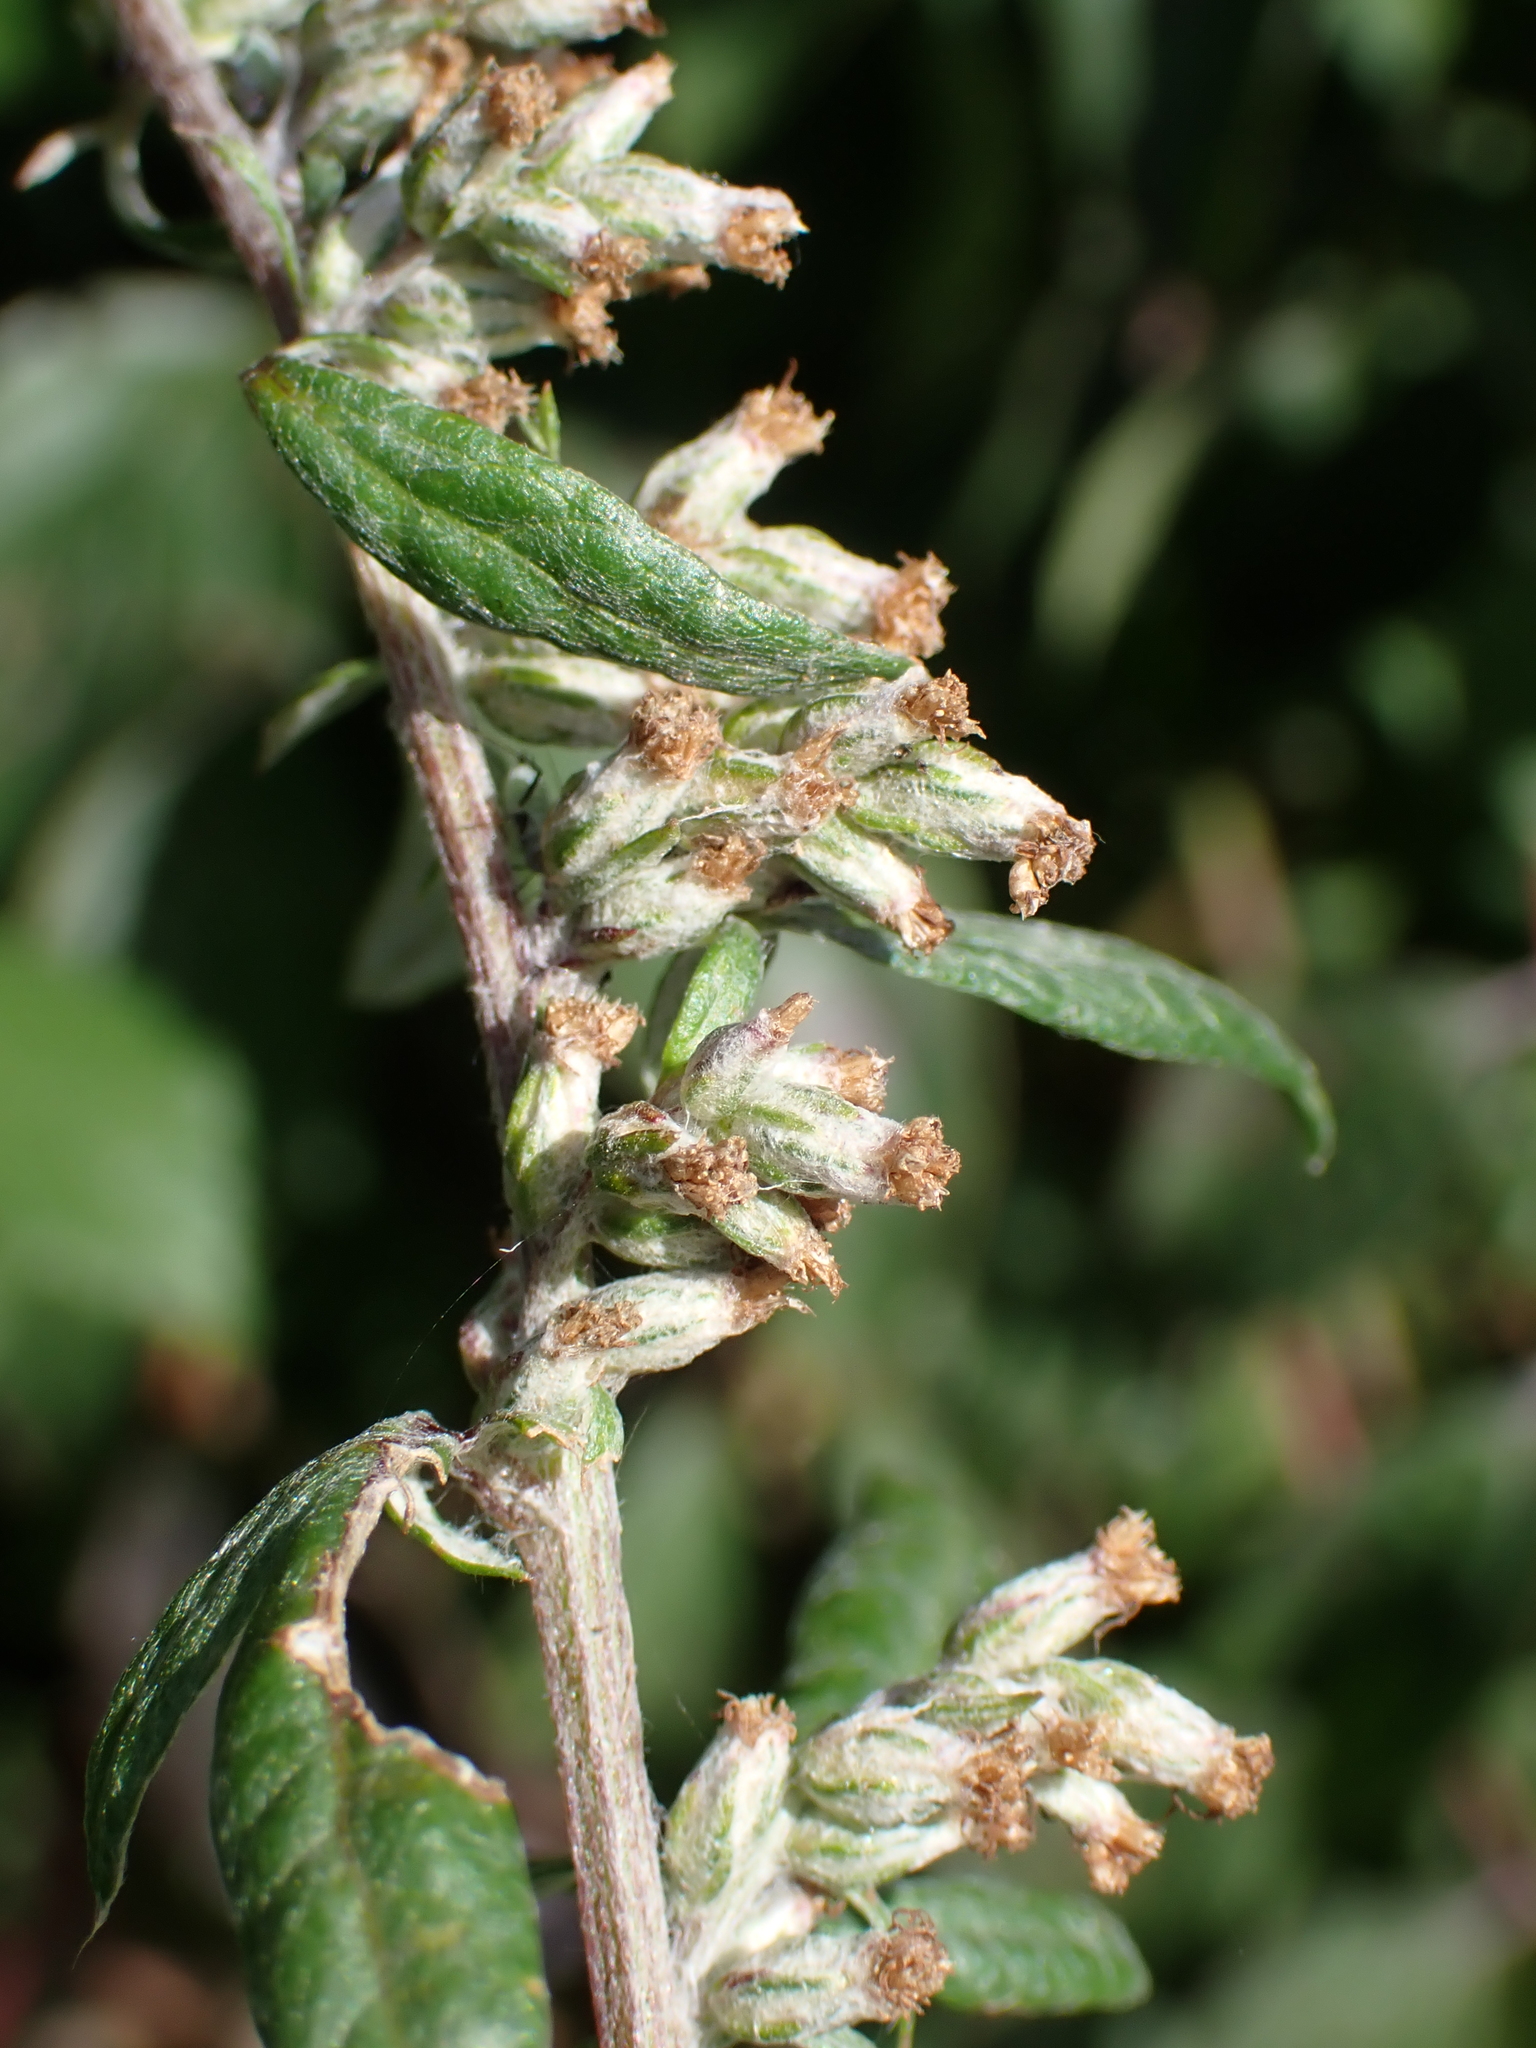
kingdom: Plantae
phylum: Tracheophyta
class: Magnoliopsida
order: Asterales
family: Asteraceae
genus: Artemisia
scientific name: Artemisia vulgaris
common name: Mugwort
